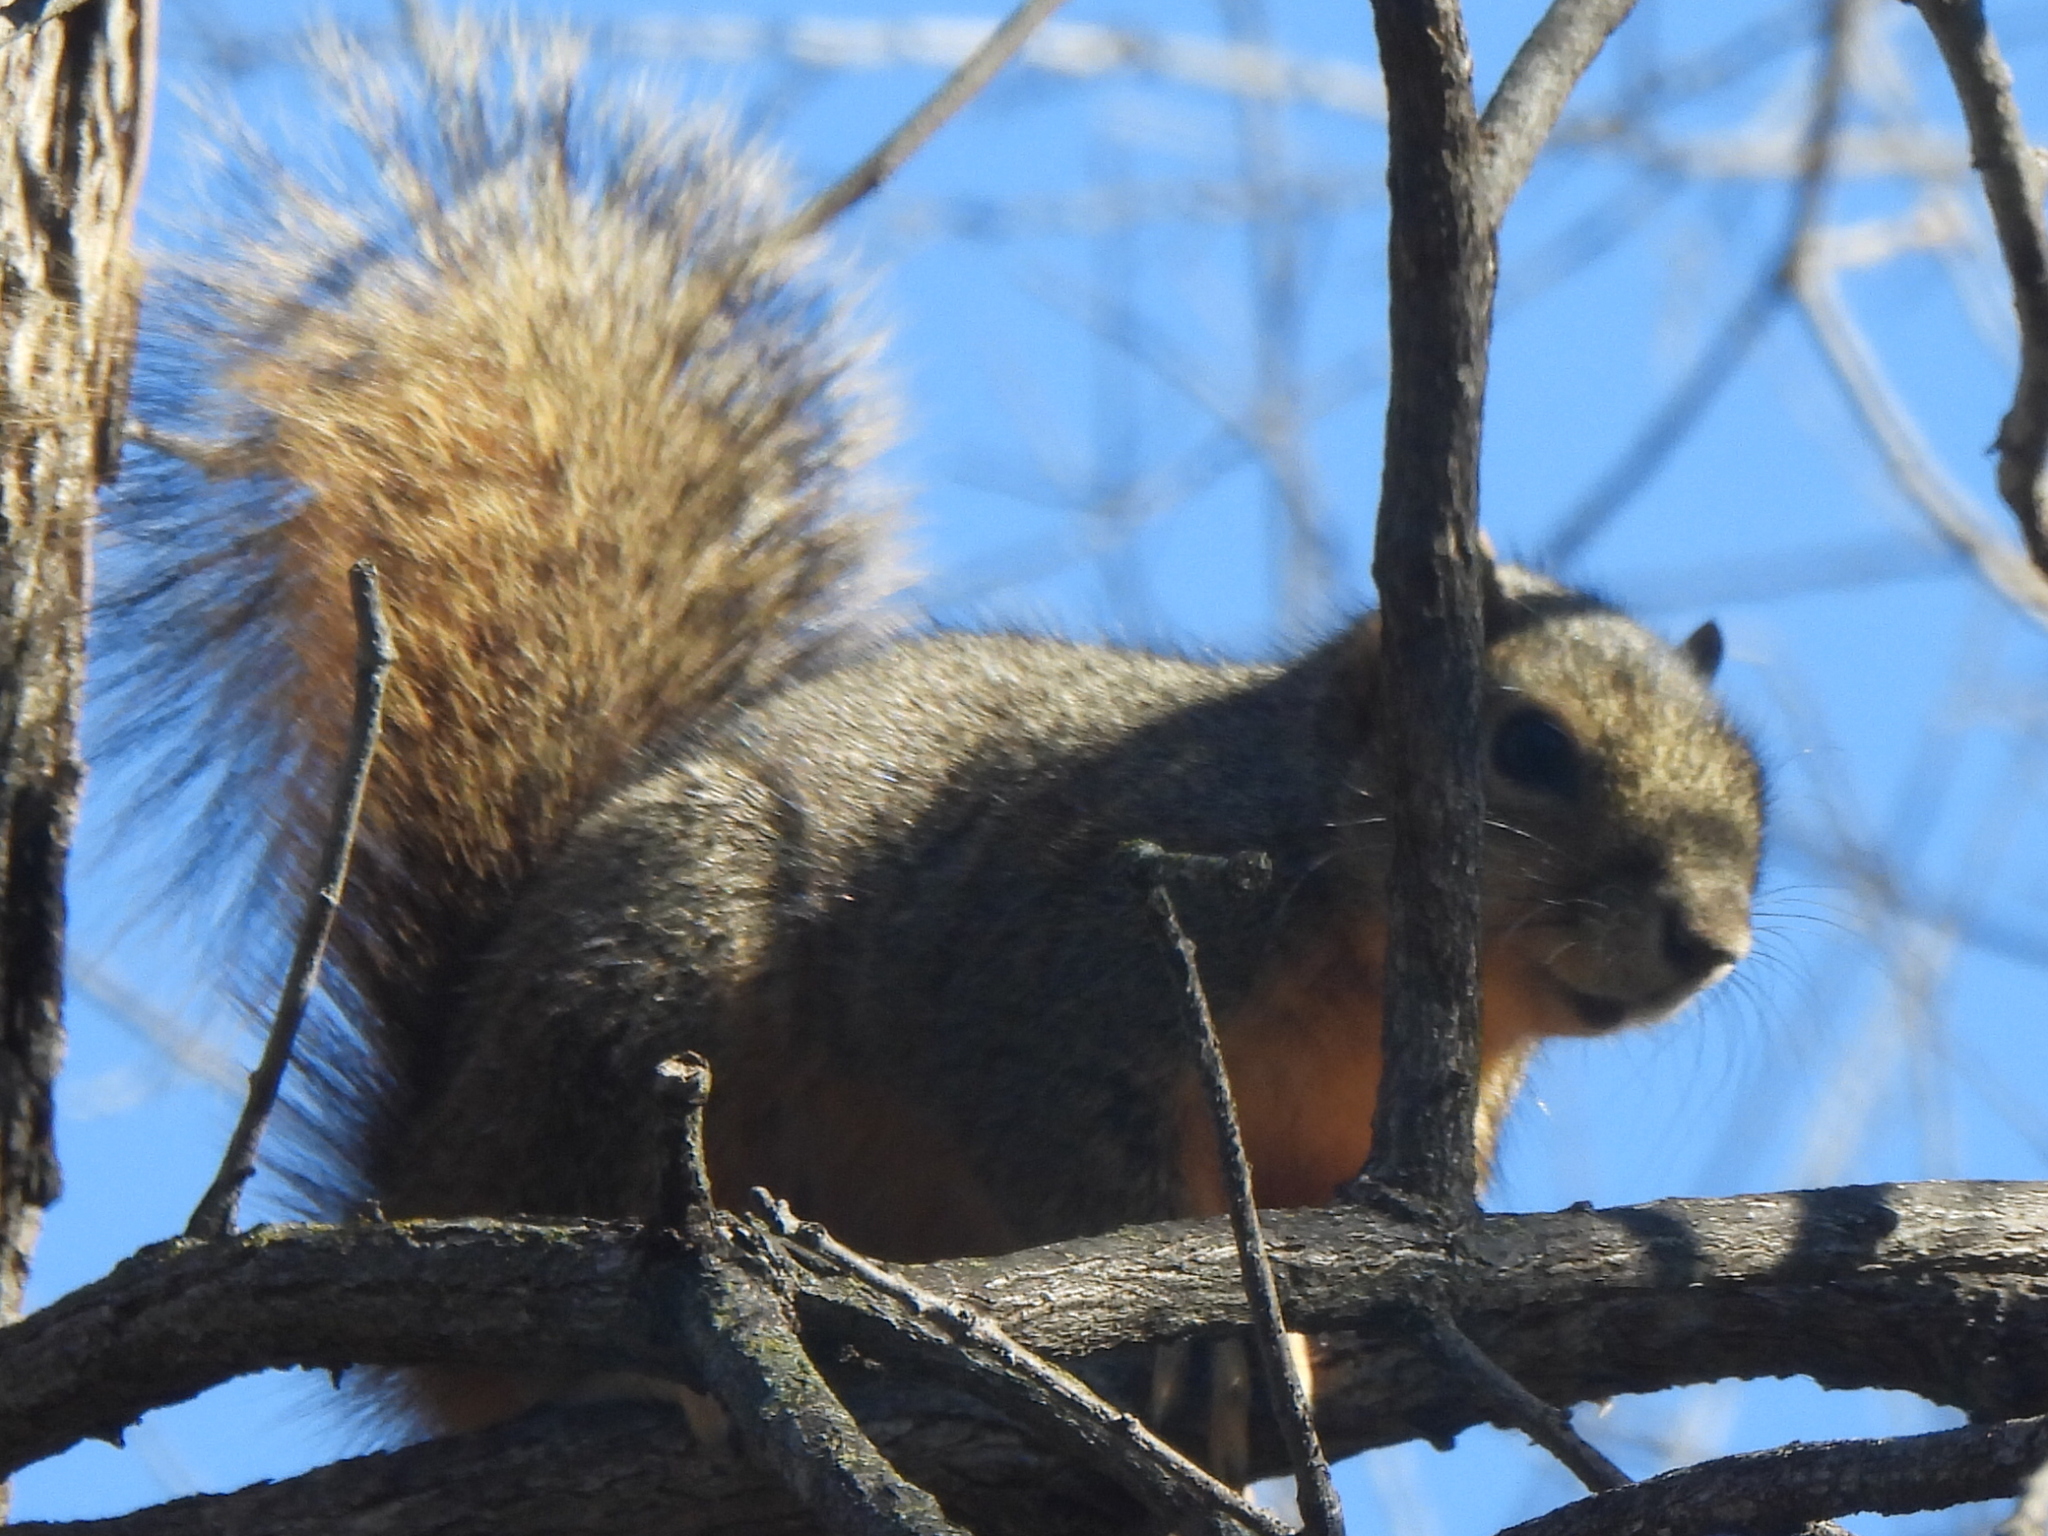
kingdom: Animalia
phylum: Chordata
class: Mammalia
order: Rodentia
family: Sciuridae
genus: Sciurus
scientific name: Sciurus niger
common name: Fox squirrel
